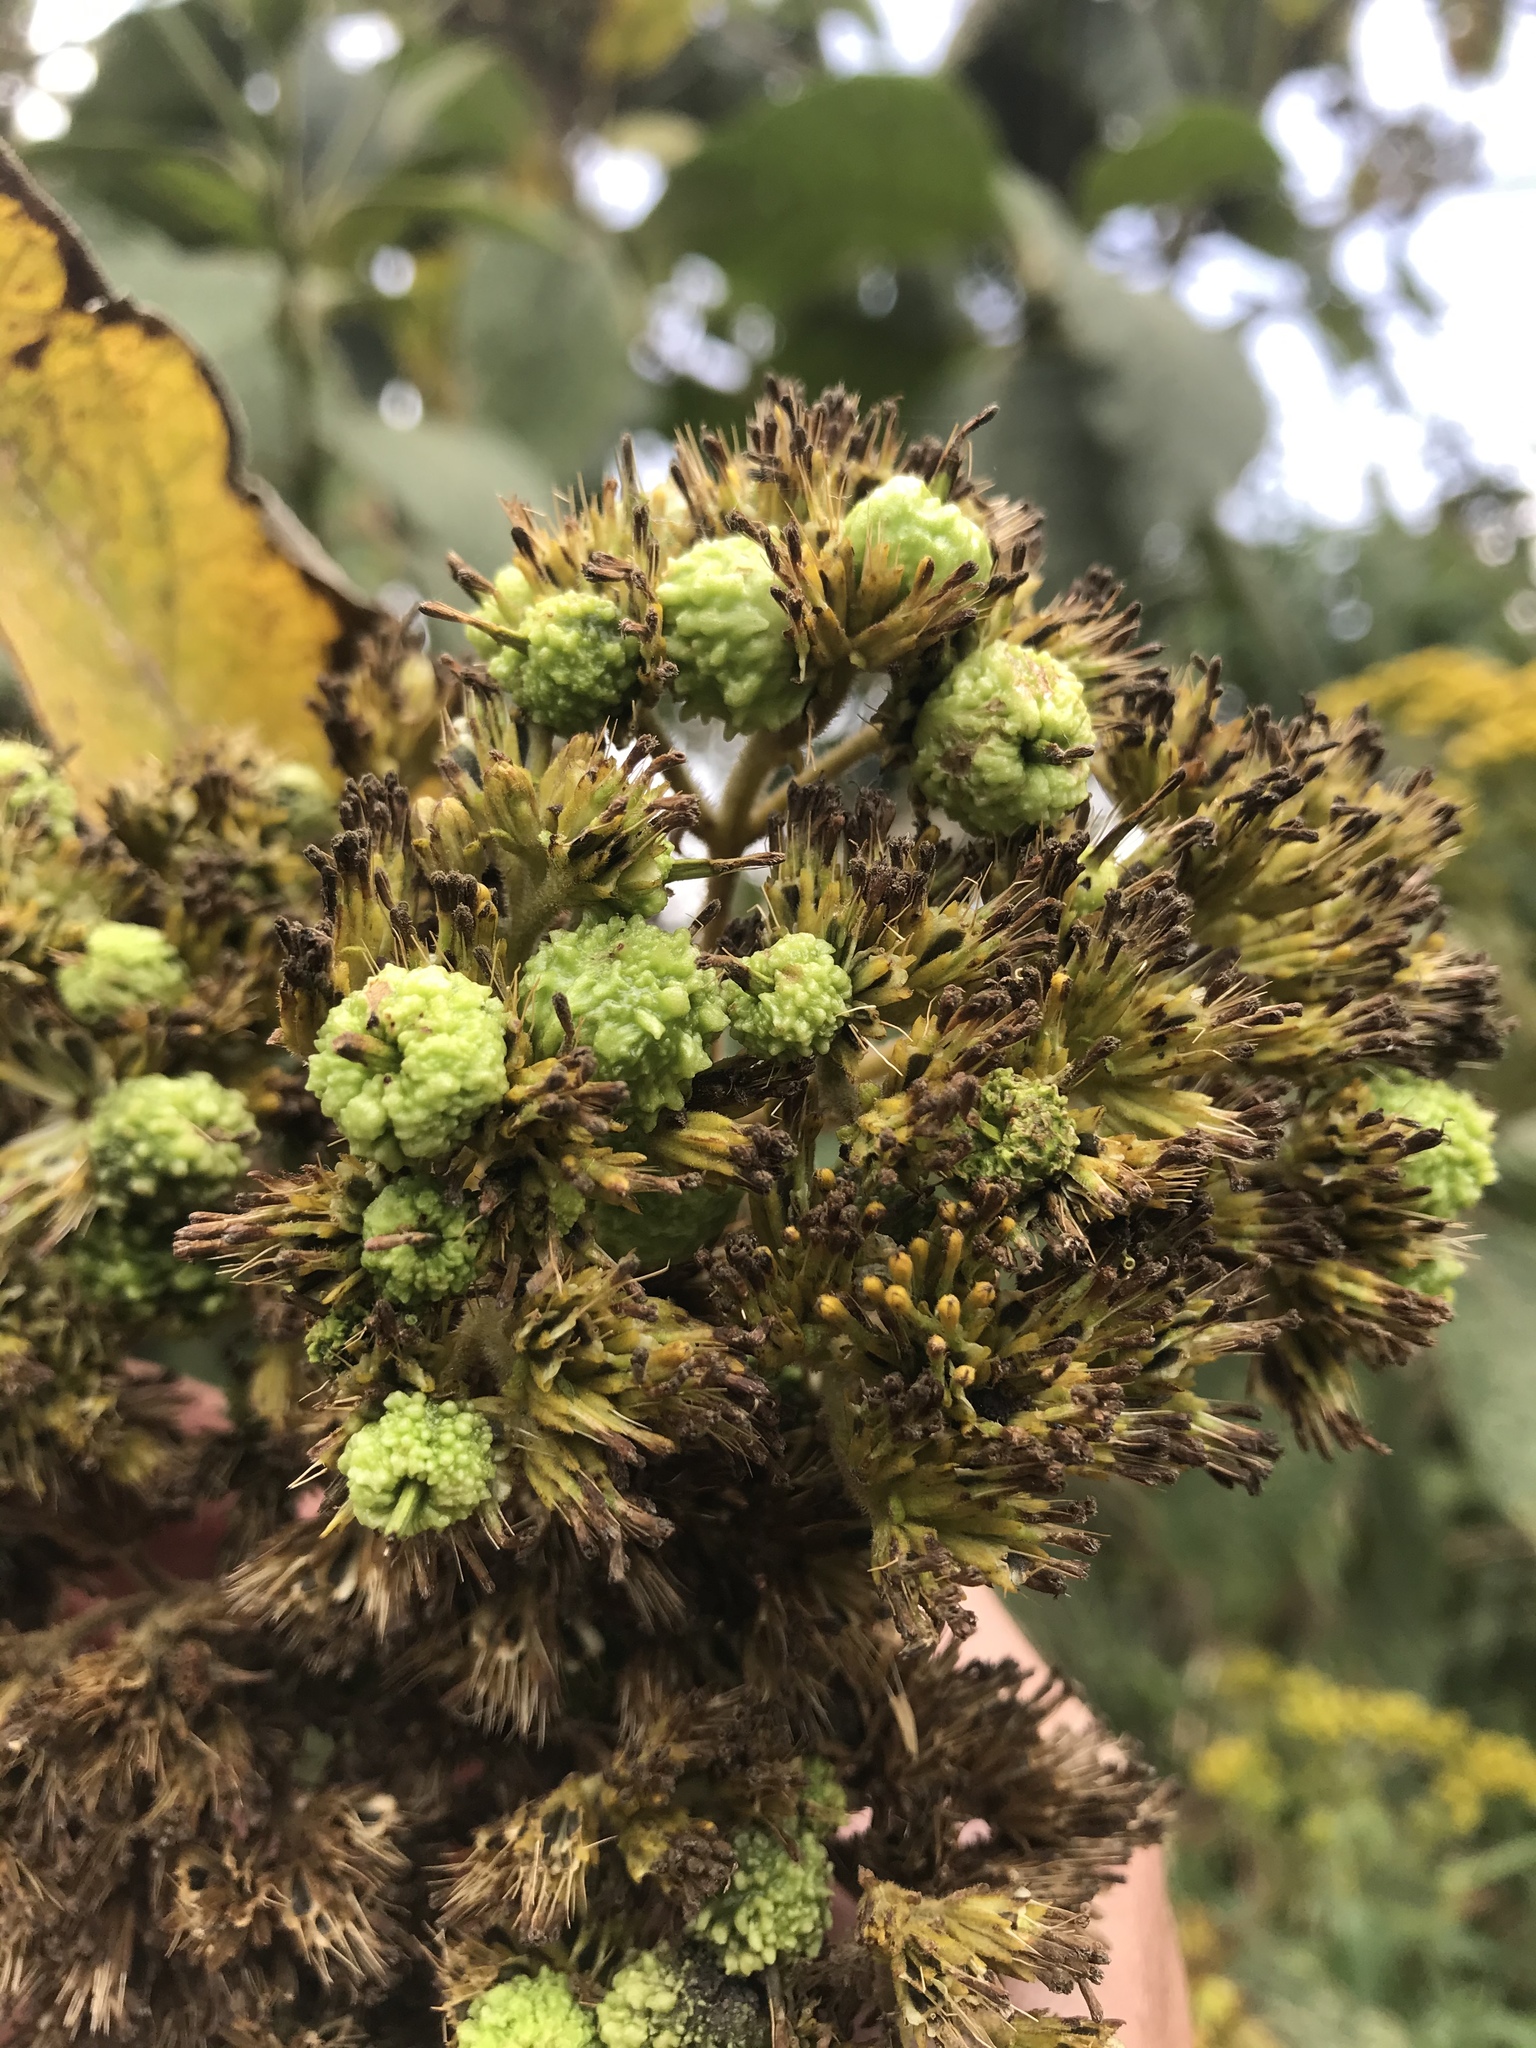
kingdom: Plantae
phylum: Tracheophyta
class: Magnoliopsida
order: Asterales
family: Asteraceae
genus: Verbesina
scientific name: Verbesina crassiramea
